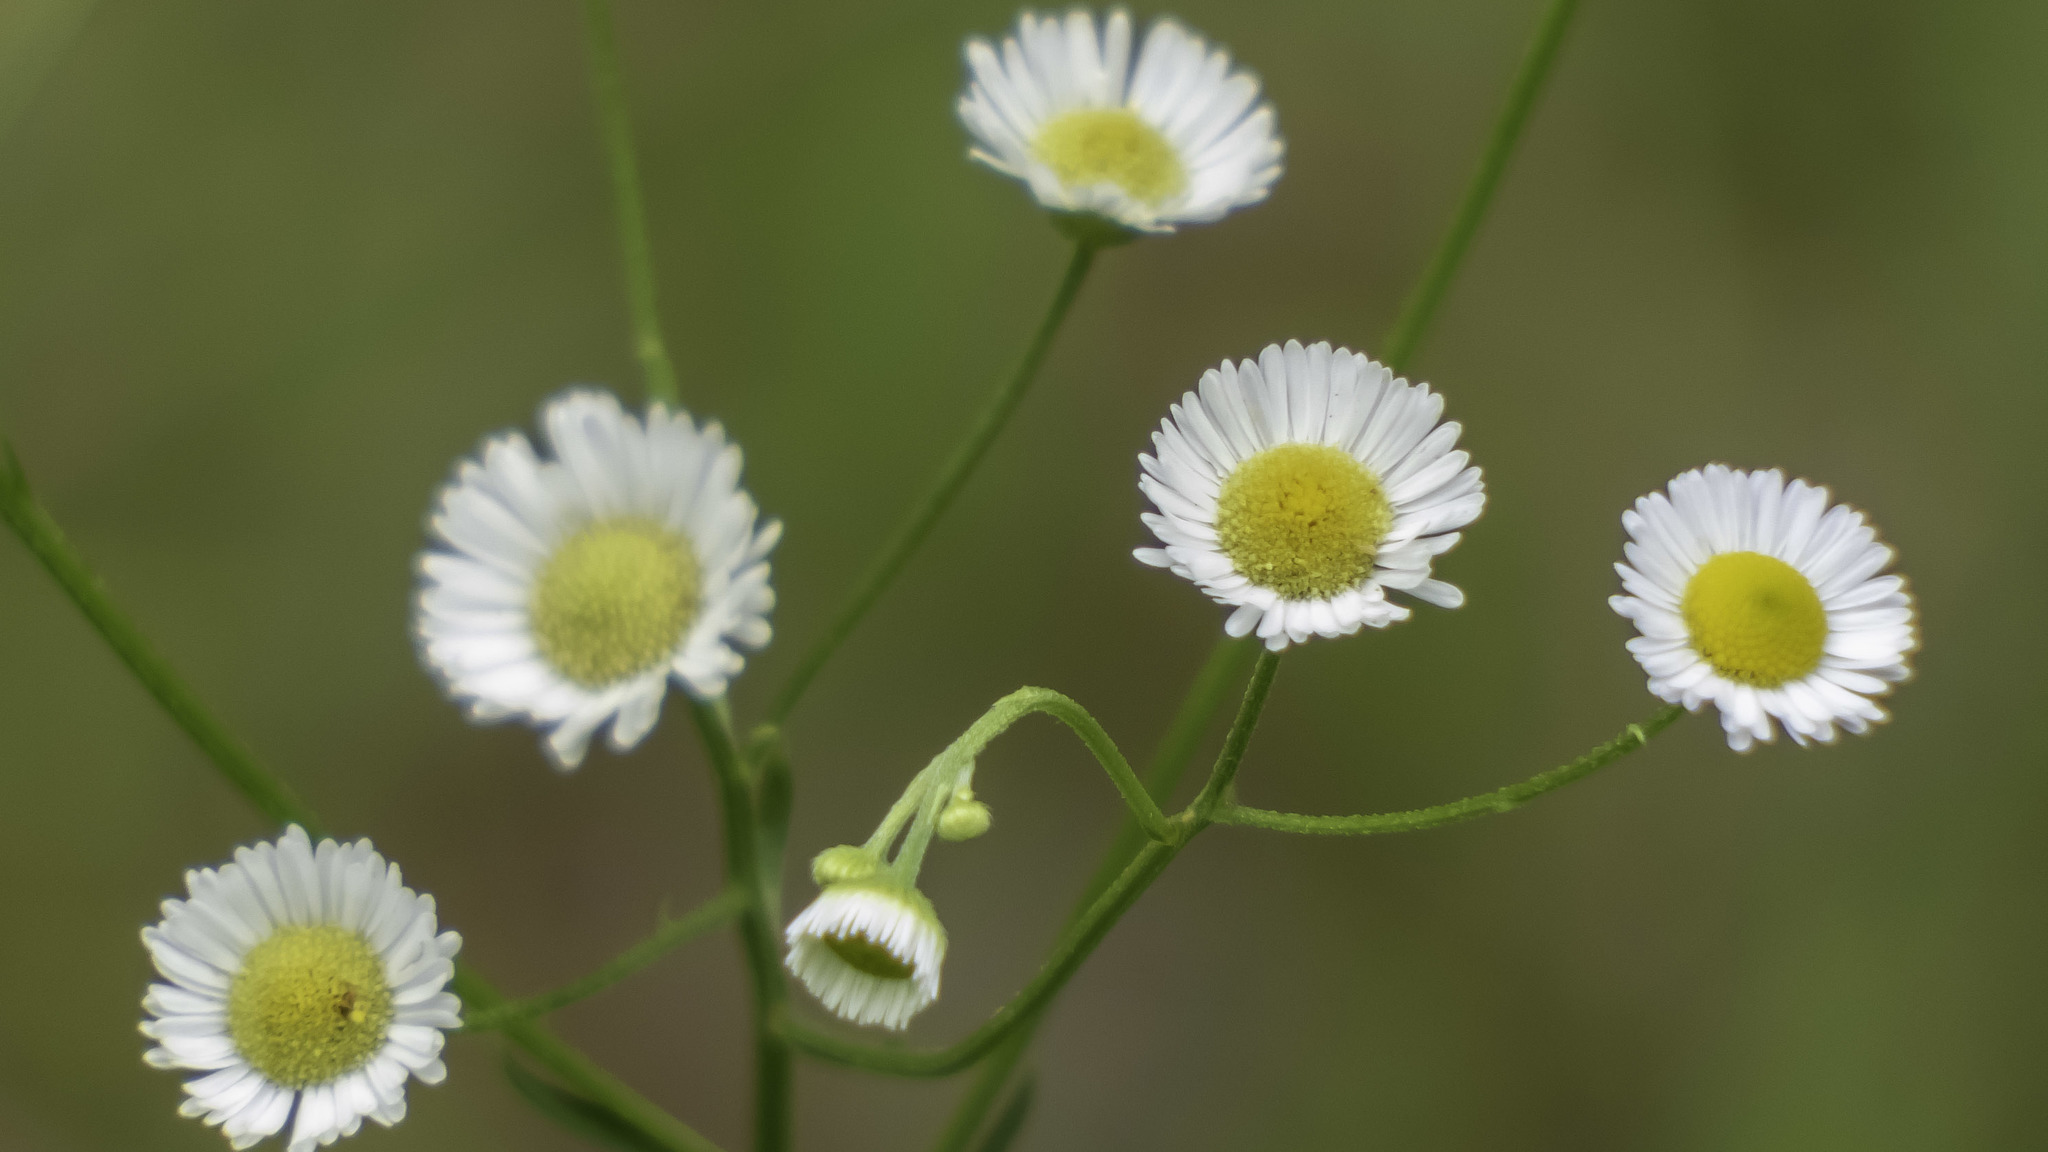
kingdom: Plantae
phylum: Tracheophyta
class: Magnoliopsida
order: Asterales
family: Asteraceae
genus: Erigeron
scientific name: Erigeron strigosus
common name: Common eastern fleabane
